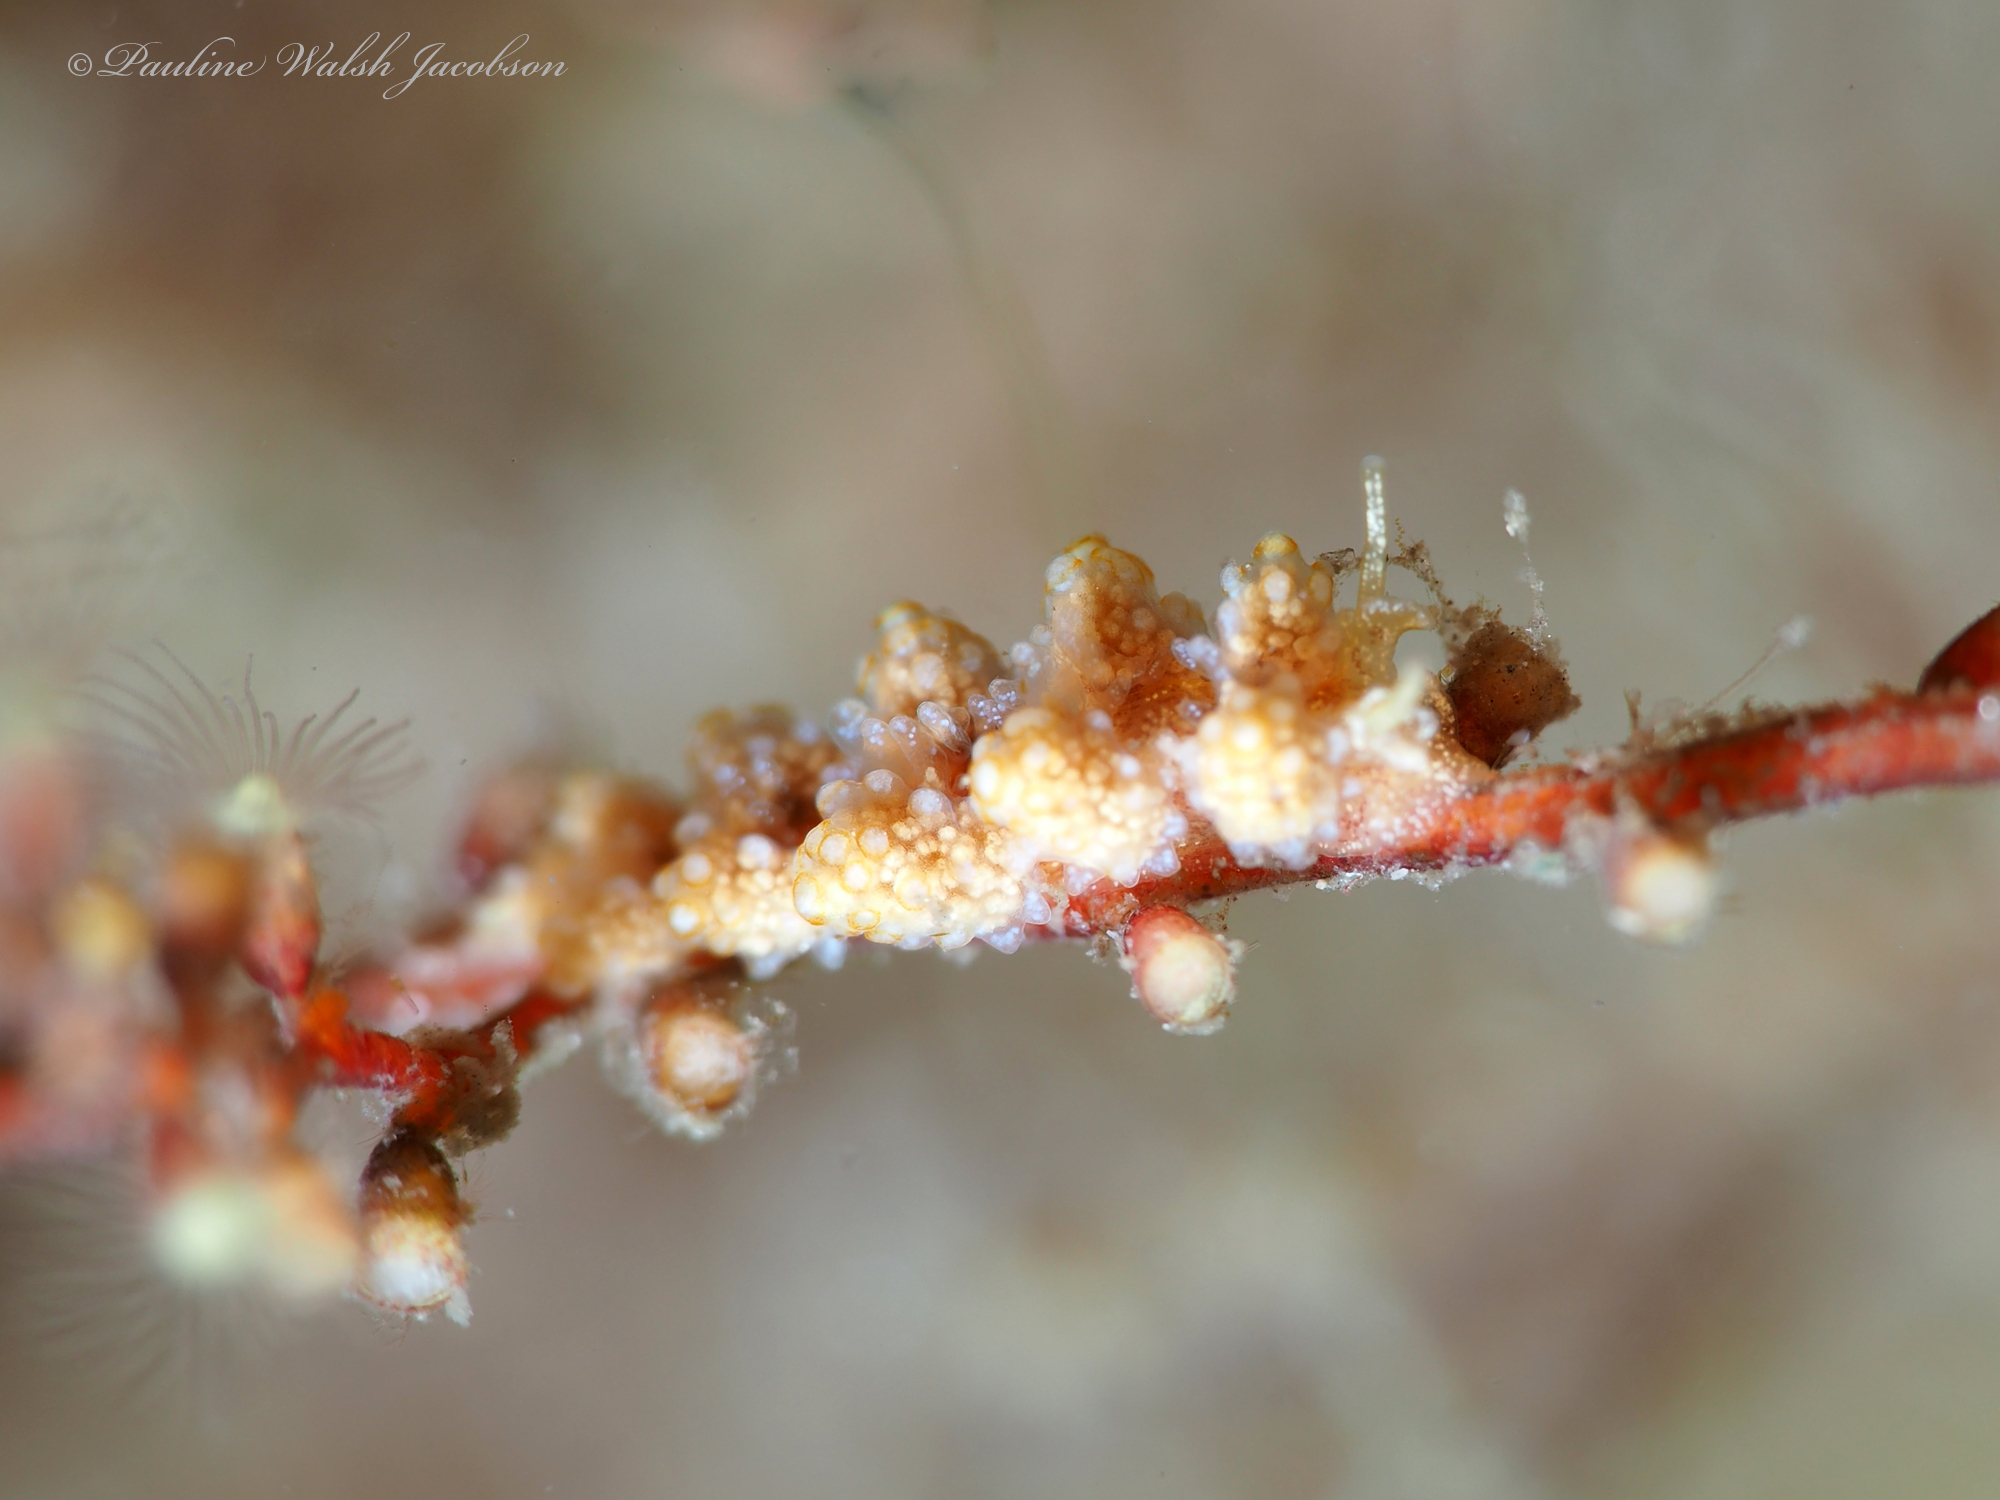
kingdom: Animalia
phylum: Mollusca
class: Gastropoda
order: Nudibranchia
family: Dotidae
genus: Doto
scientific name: Doto torrelavega
